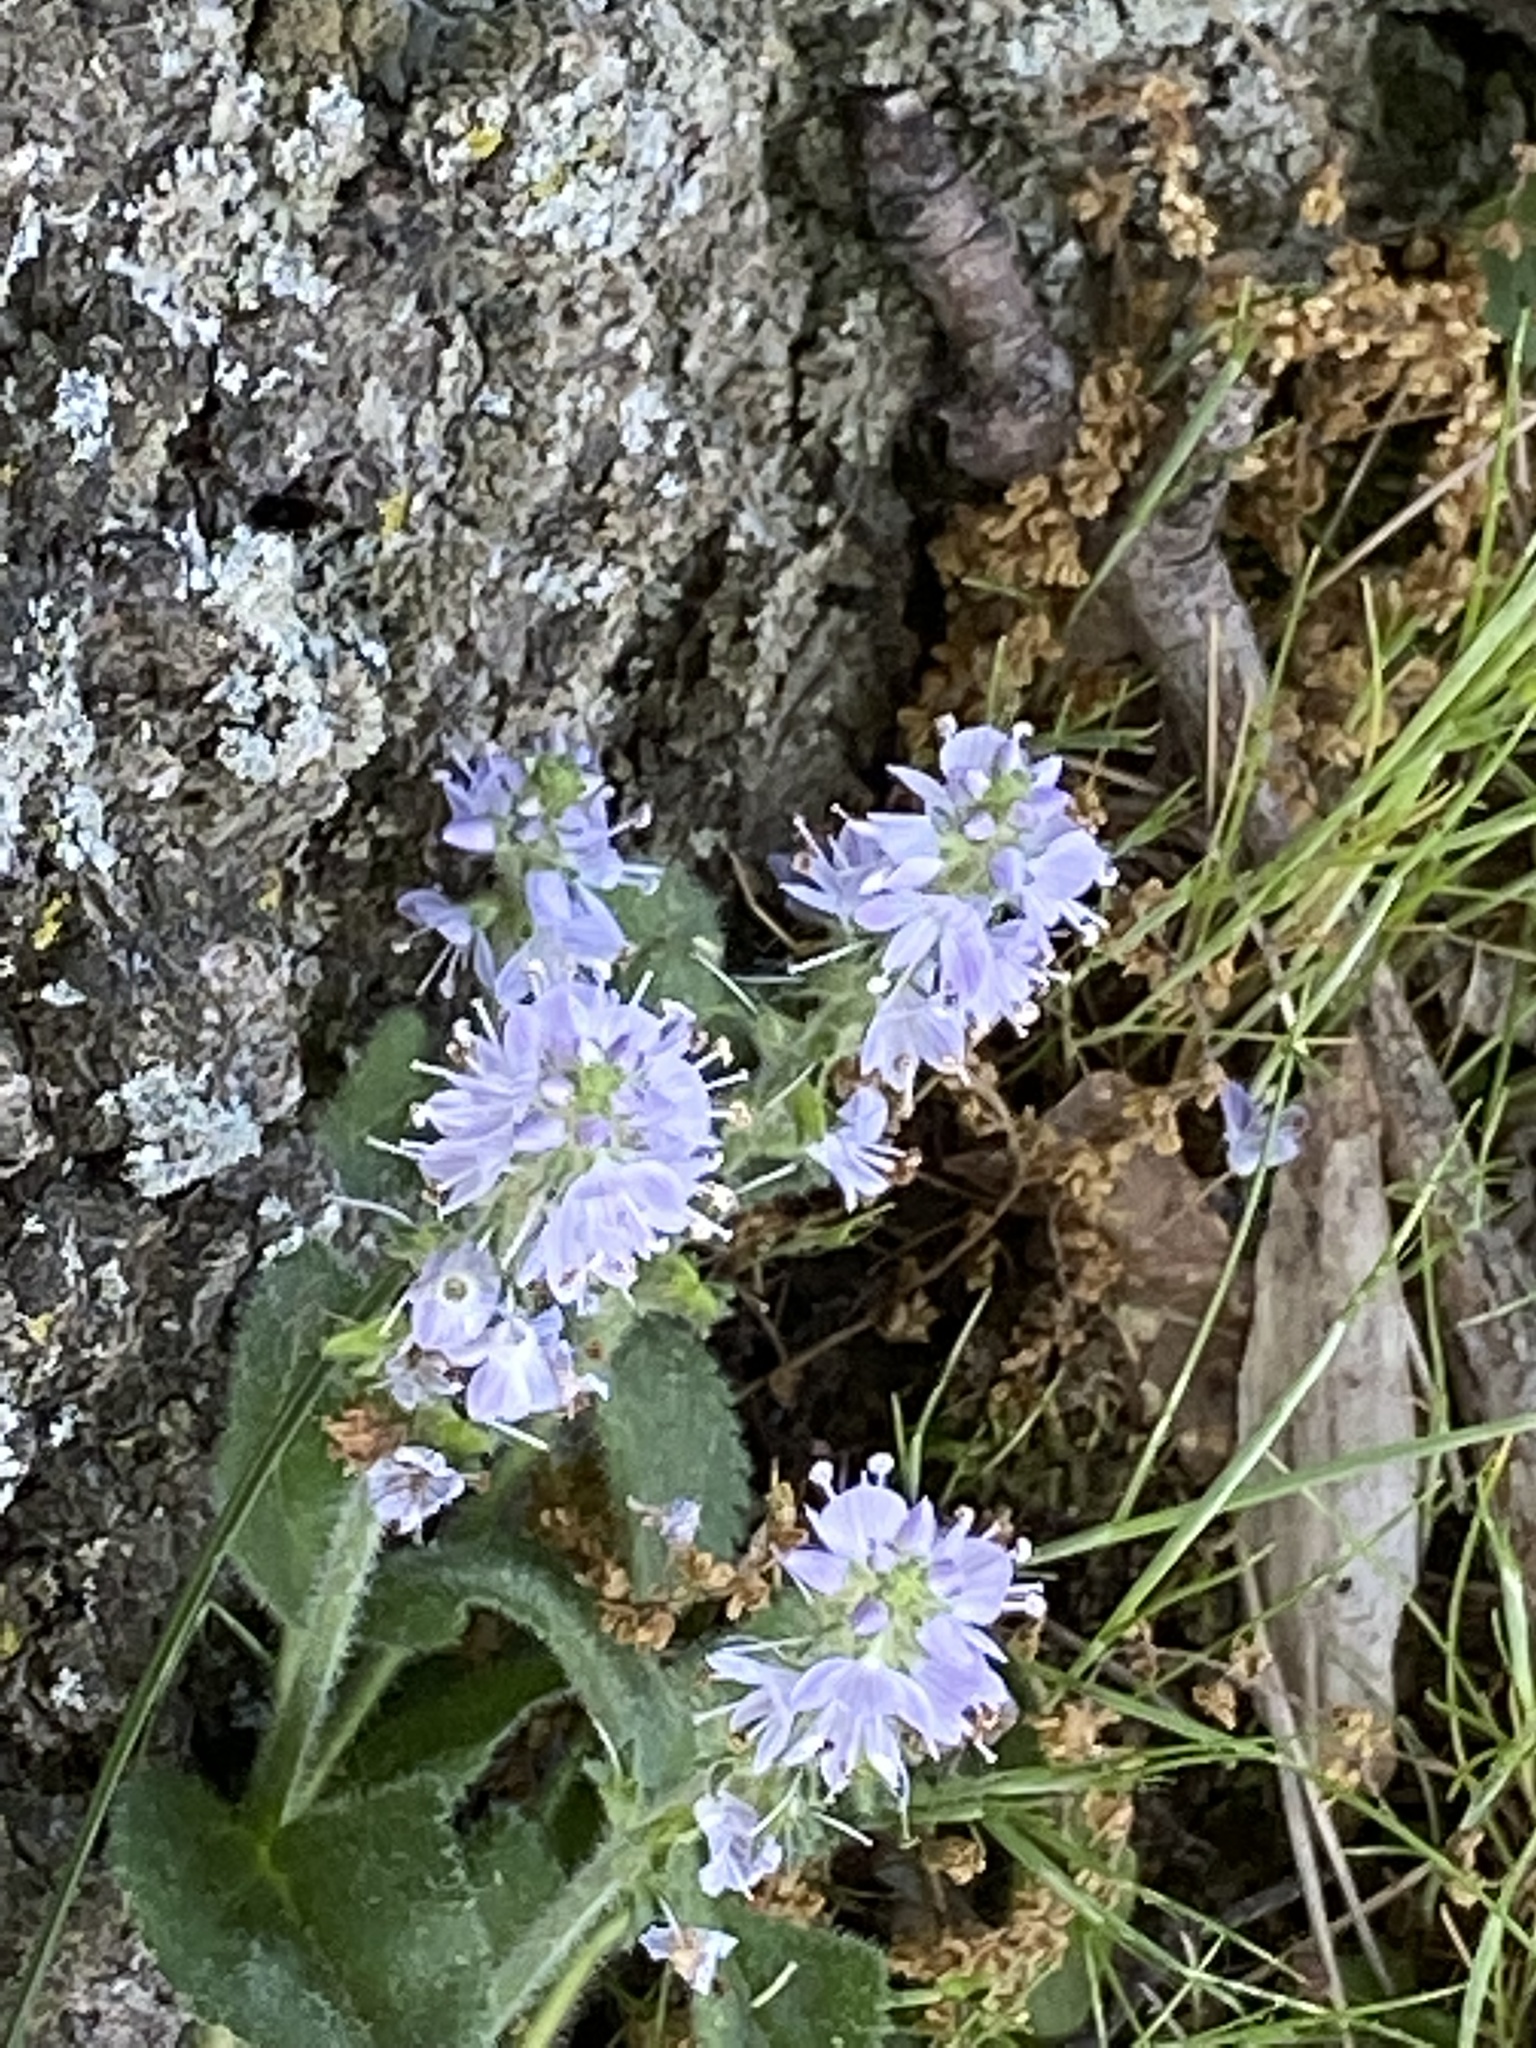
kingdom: Plantae
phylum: Tracheophyta
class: Magnoliopsida
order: Lamiales
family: Plantaginaceae
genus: Veronica
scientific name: Veronica officinalis
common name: Common speedwell
